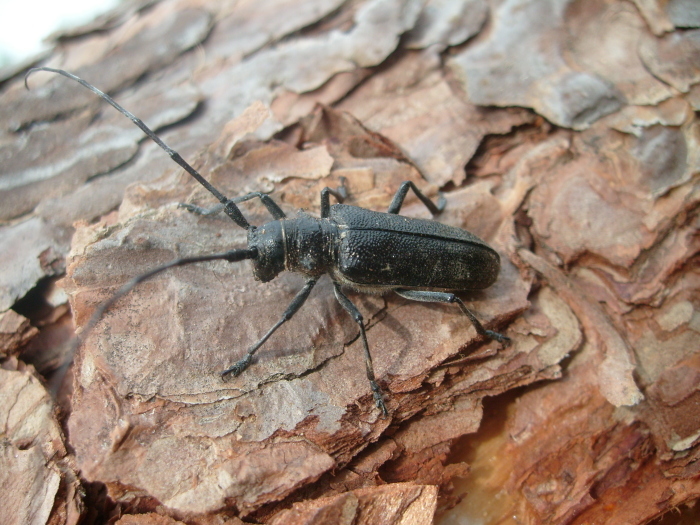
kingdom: Animalia
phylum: Arthropoda
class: Insecta
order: Coleoptera
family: Cerambycidae
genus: Monochamus
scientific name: Monochamus sutor
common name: Pine sawyer
